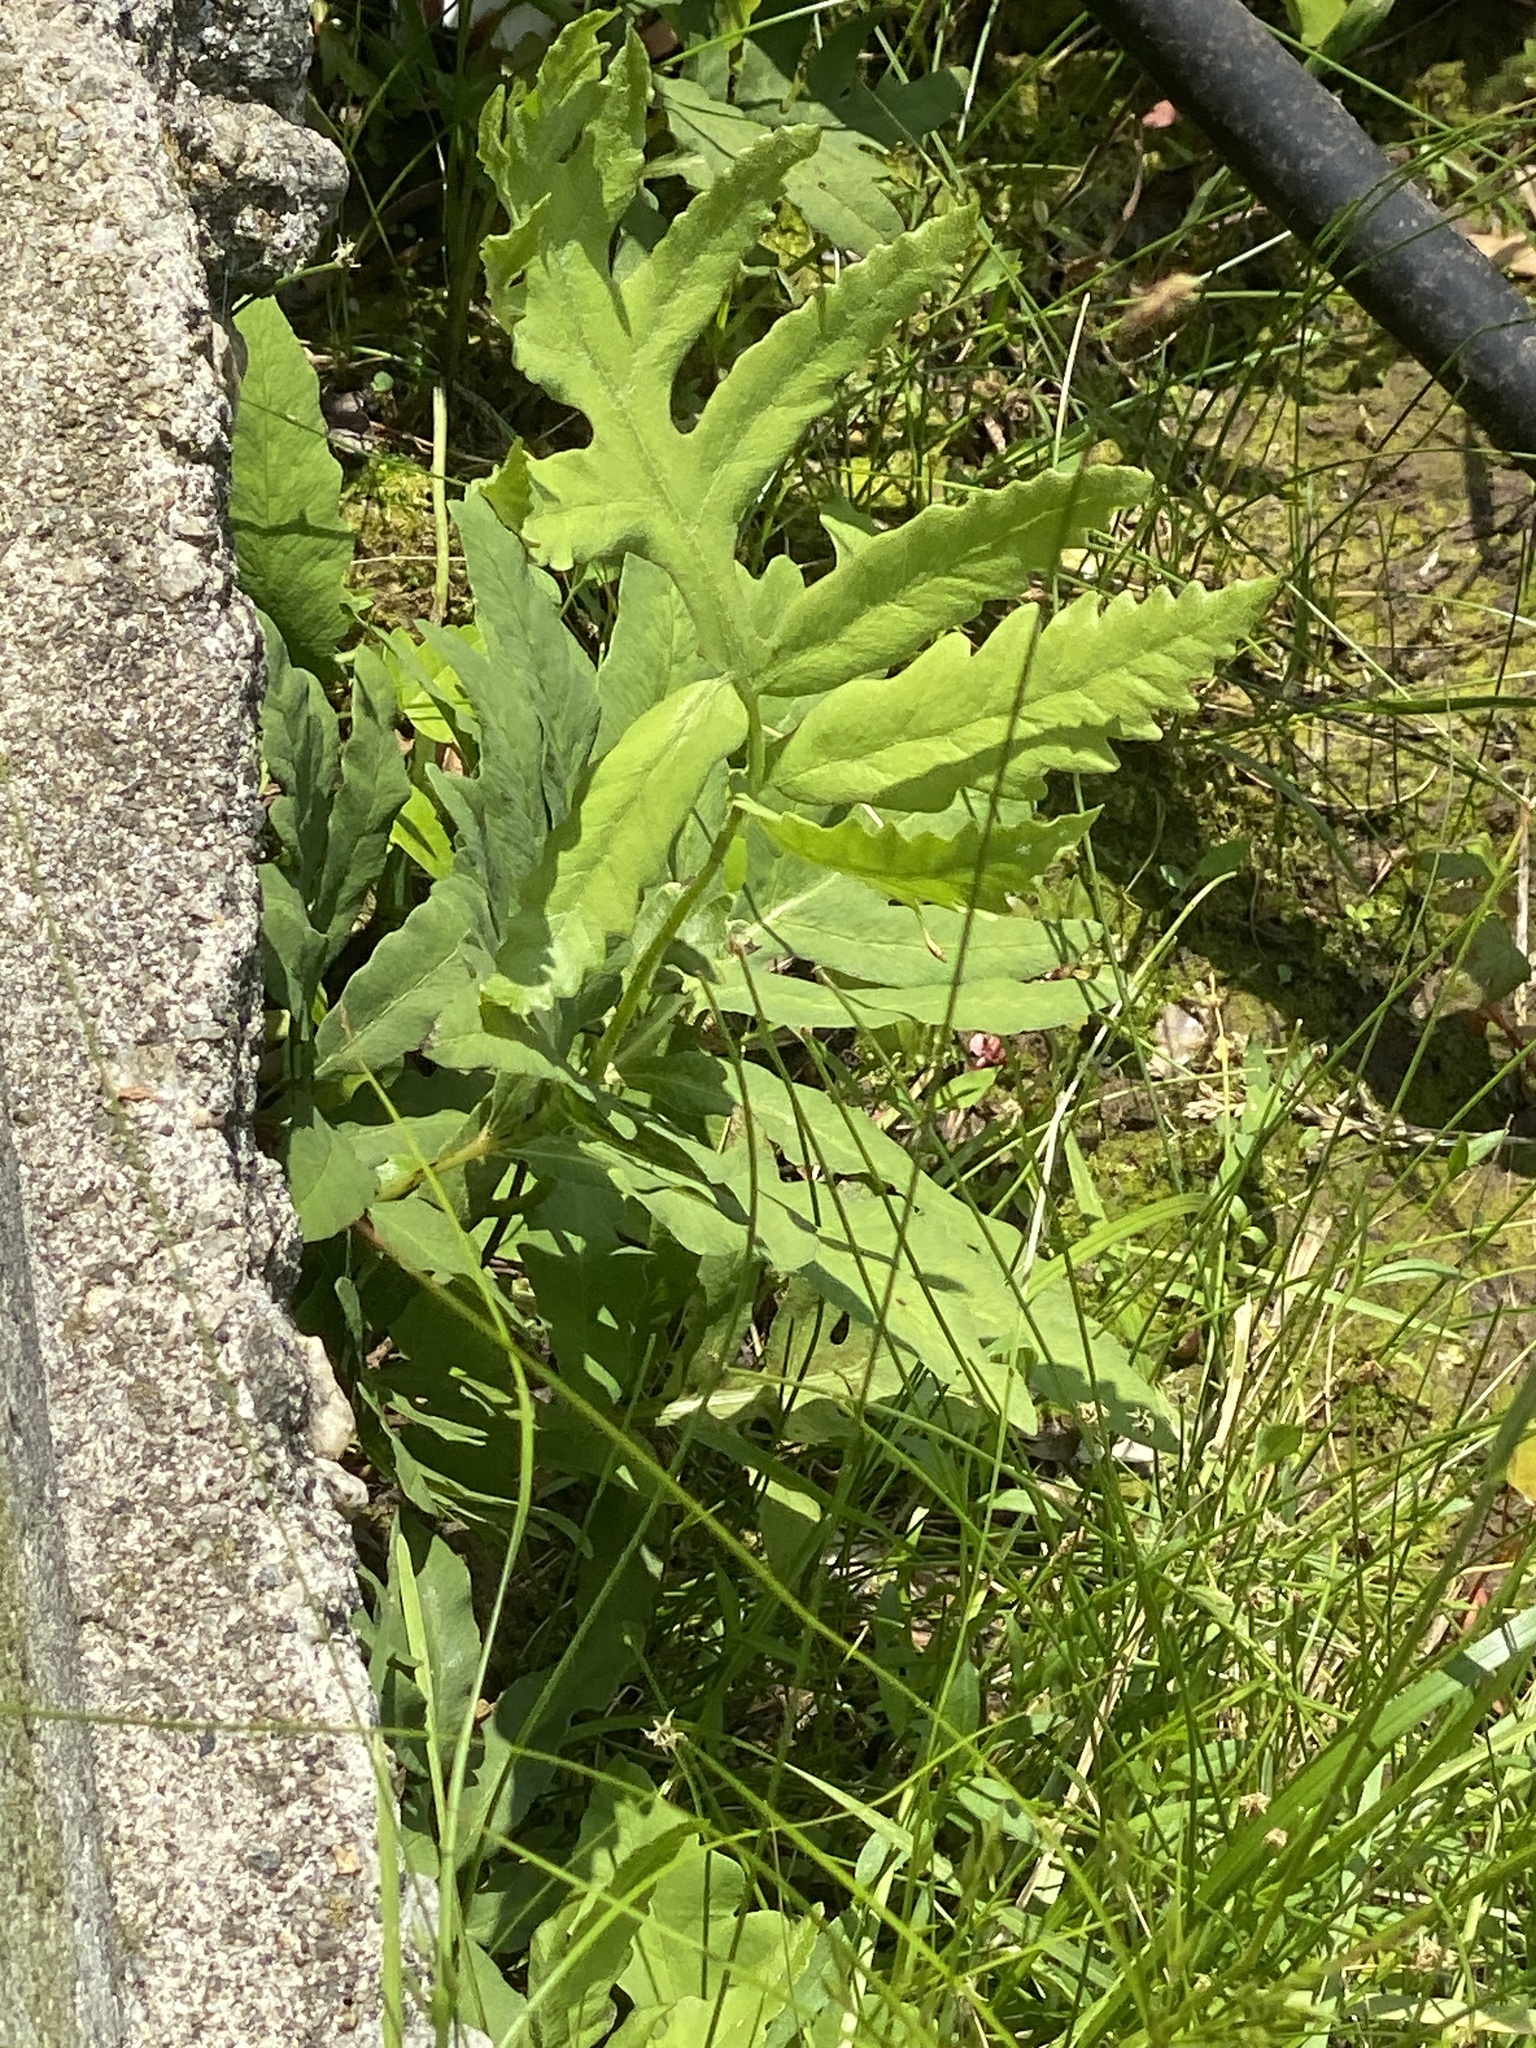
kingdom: Plantae
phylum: Tracheophyta
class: Polypodiopsida
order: Polypodiales
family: Onocleaceae
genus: Onoclea
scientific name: Onoclea sensibilis
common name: Sensitive fern
